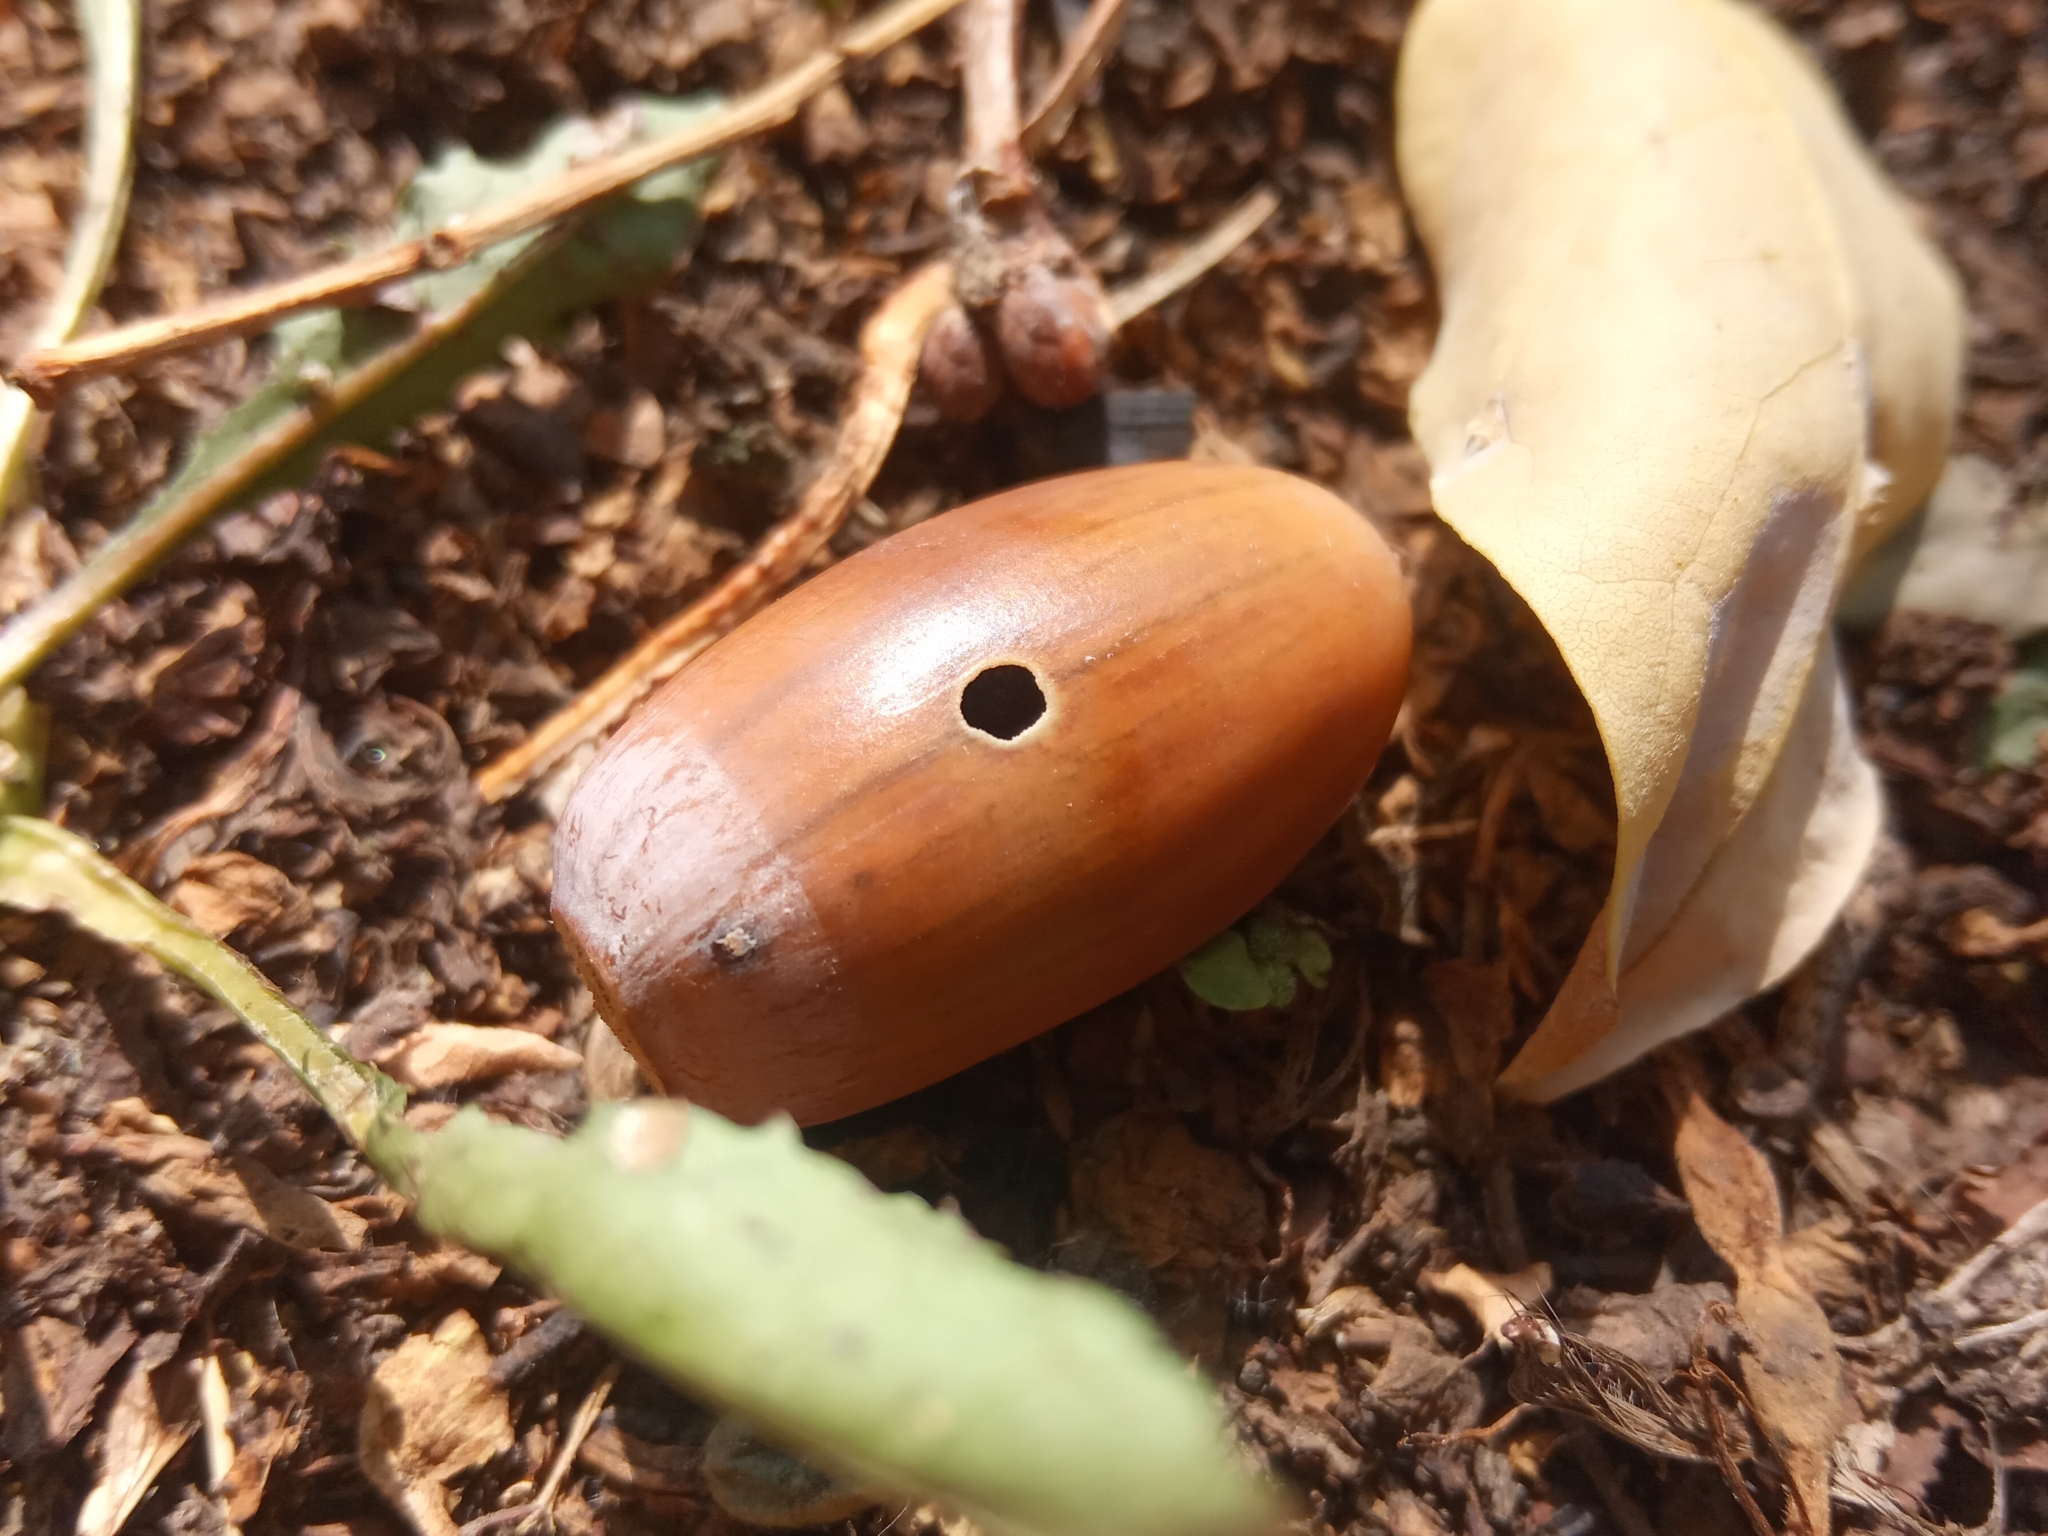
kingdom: Animalia
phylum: Arthropoda
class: Insecta
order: Coleoptera
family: Curculionidae
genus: Curculio
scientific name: Curculio glandium
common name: Acorn weevil
